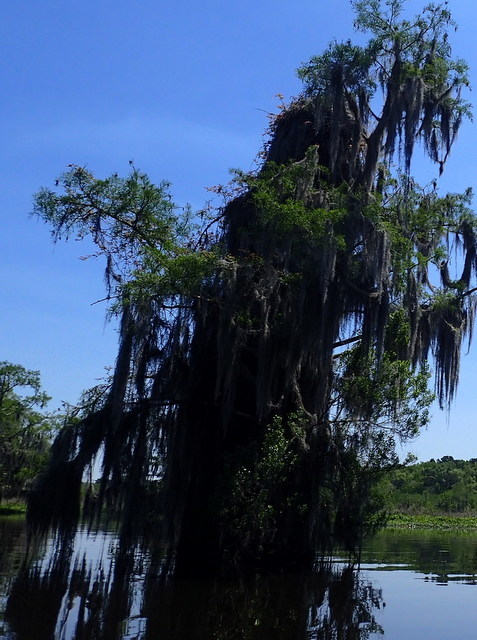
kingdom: Animalia
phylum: Chordata
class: Aves
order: Accipitriformes
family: Pandionidae
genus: Pandion
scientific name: Pandion haliaetus
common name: Osprey
